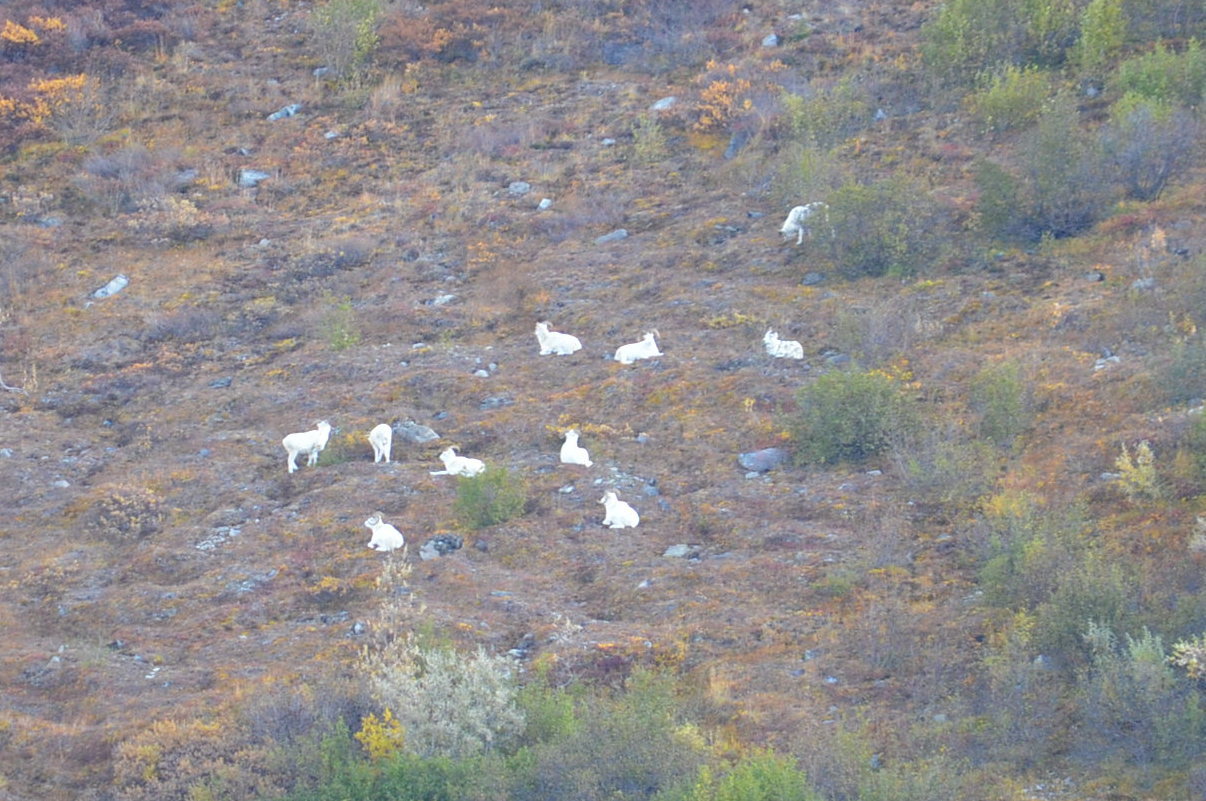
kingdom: Animalia
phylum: Chordata
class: Mammalia
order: Artiodactyla
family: Bovidae
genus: Ovis
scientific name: Ovis dalli
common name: Dall's sheep
